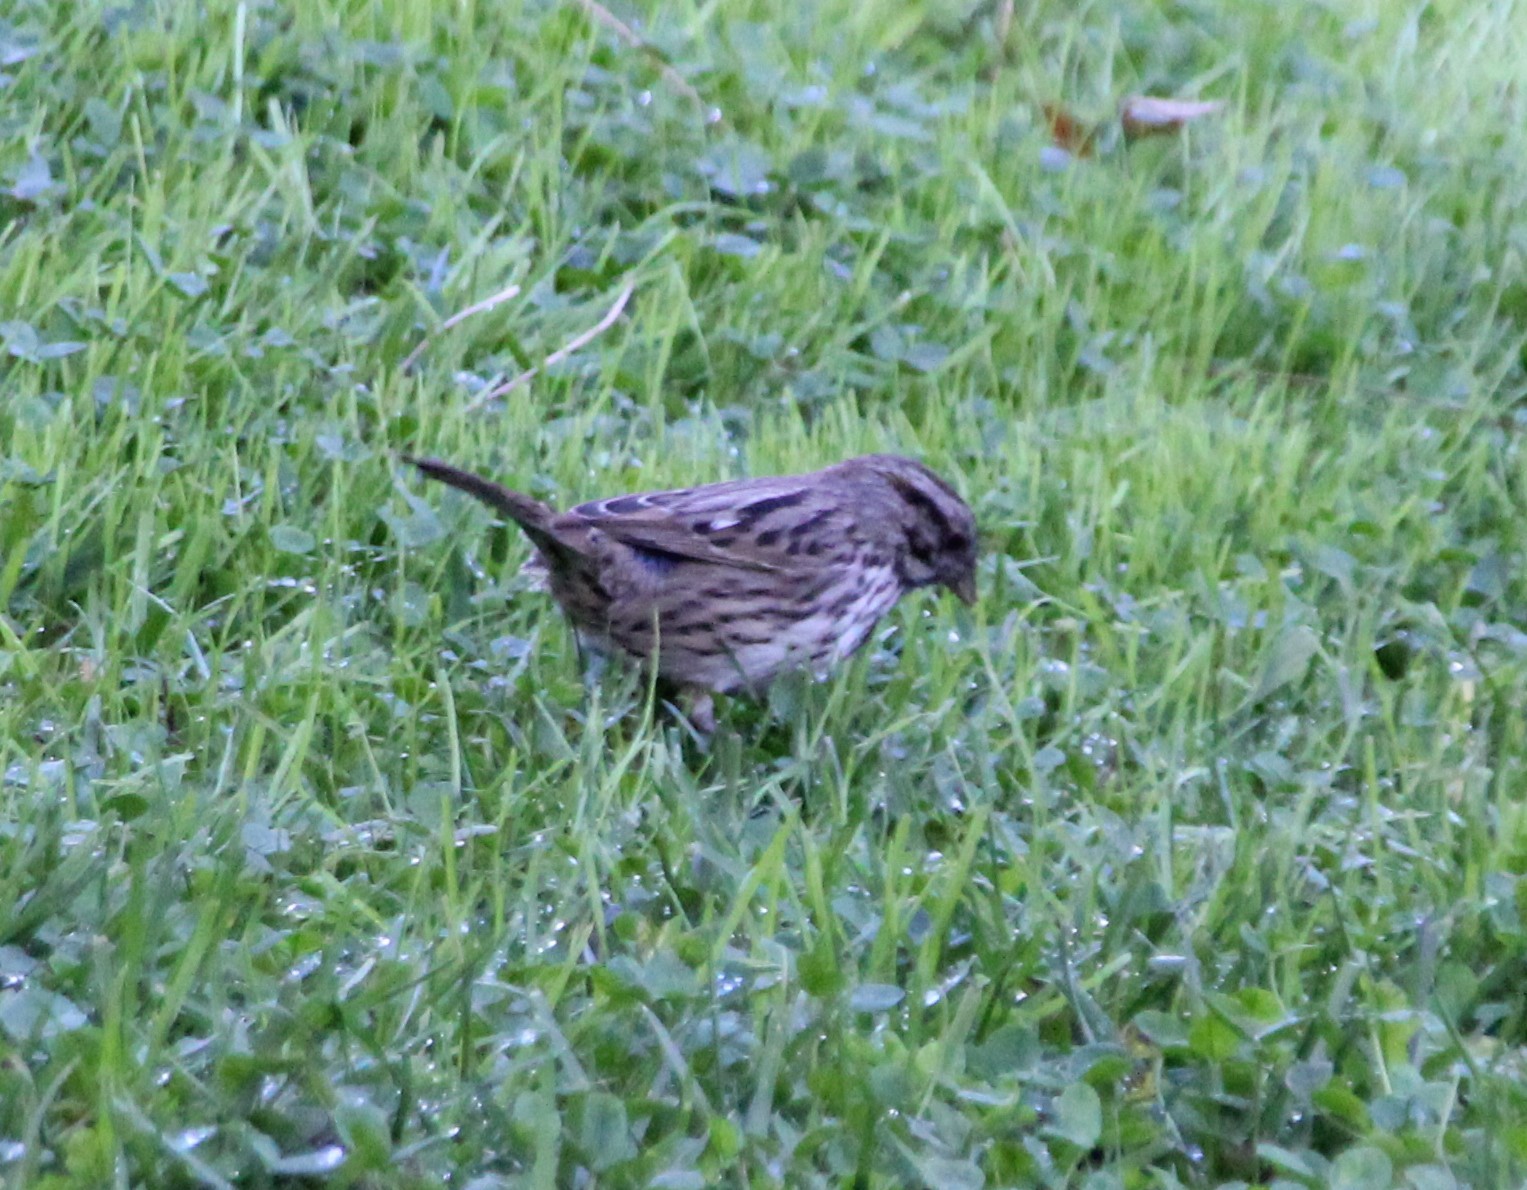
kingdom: Animalia
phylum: Chordata
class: Aves
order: Passeriformes
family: Passerellidae
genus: Melospiza
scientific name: Melospiza melodia
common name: Song sparrow
